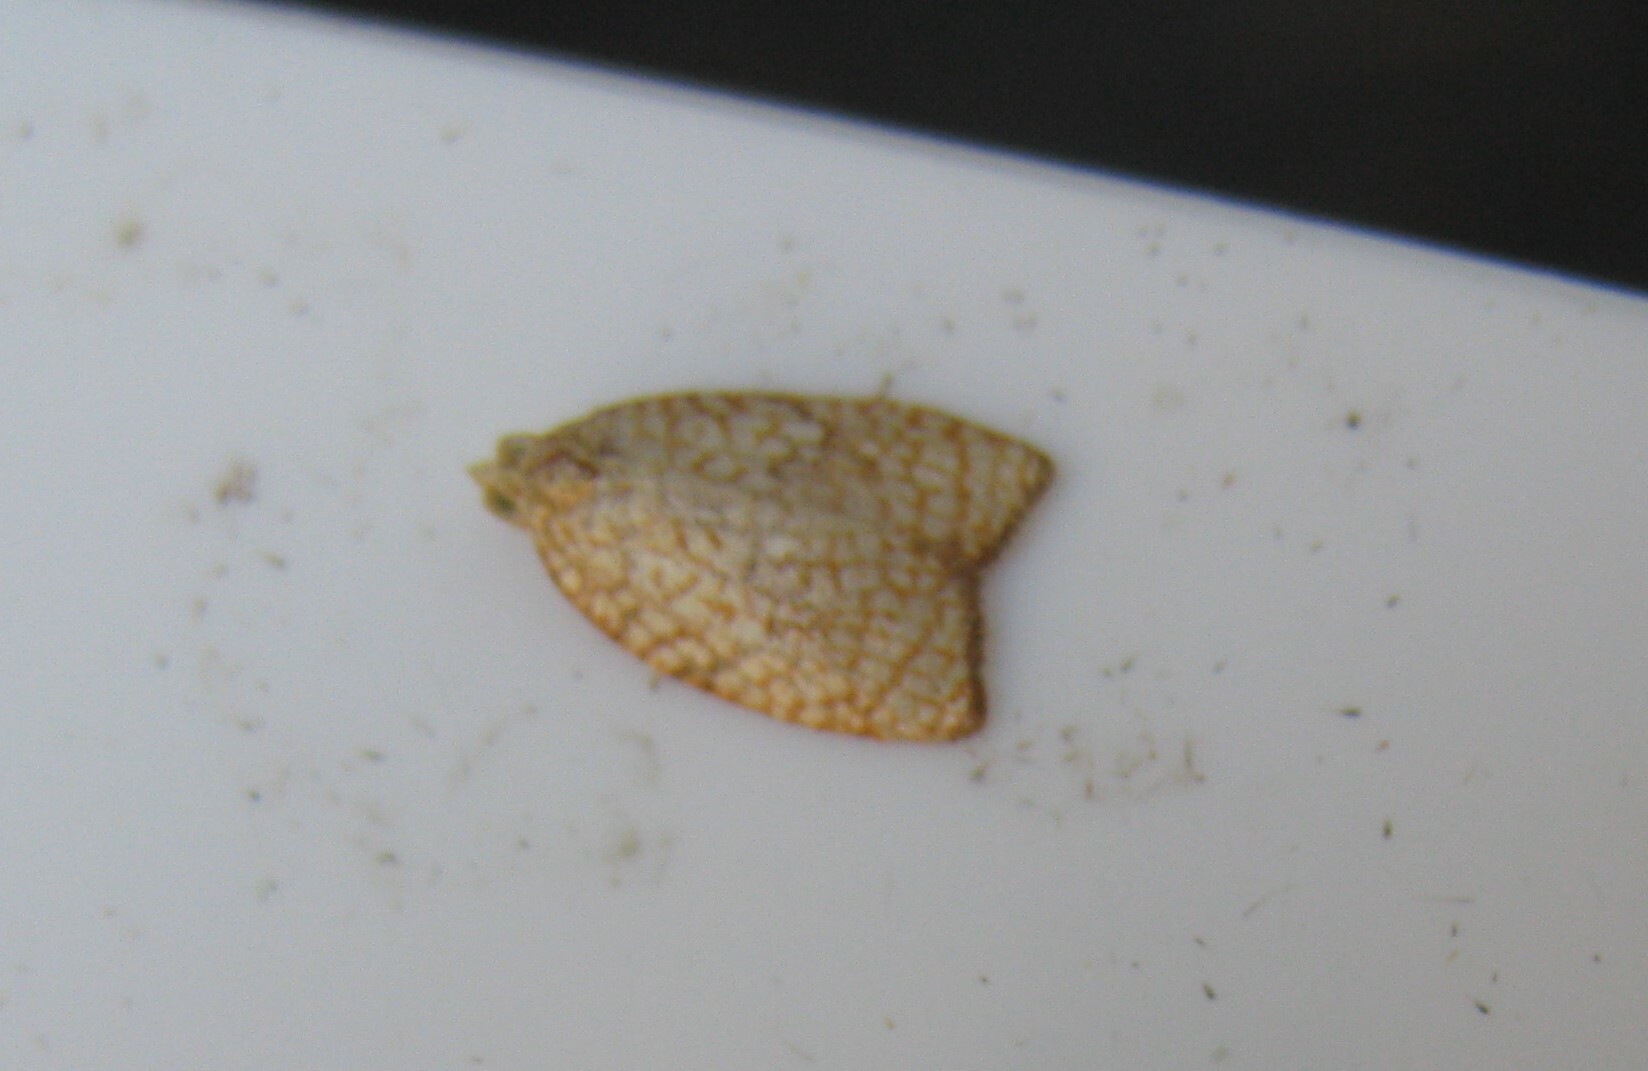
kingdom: Animalia
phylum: Arthropoda
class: Insecta
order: Lepidoptera
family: Tortricidae
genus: Acleris
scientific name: Acleris forsskaleana
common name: Maple button
